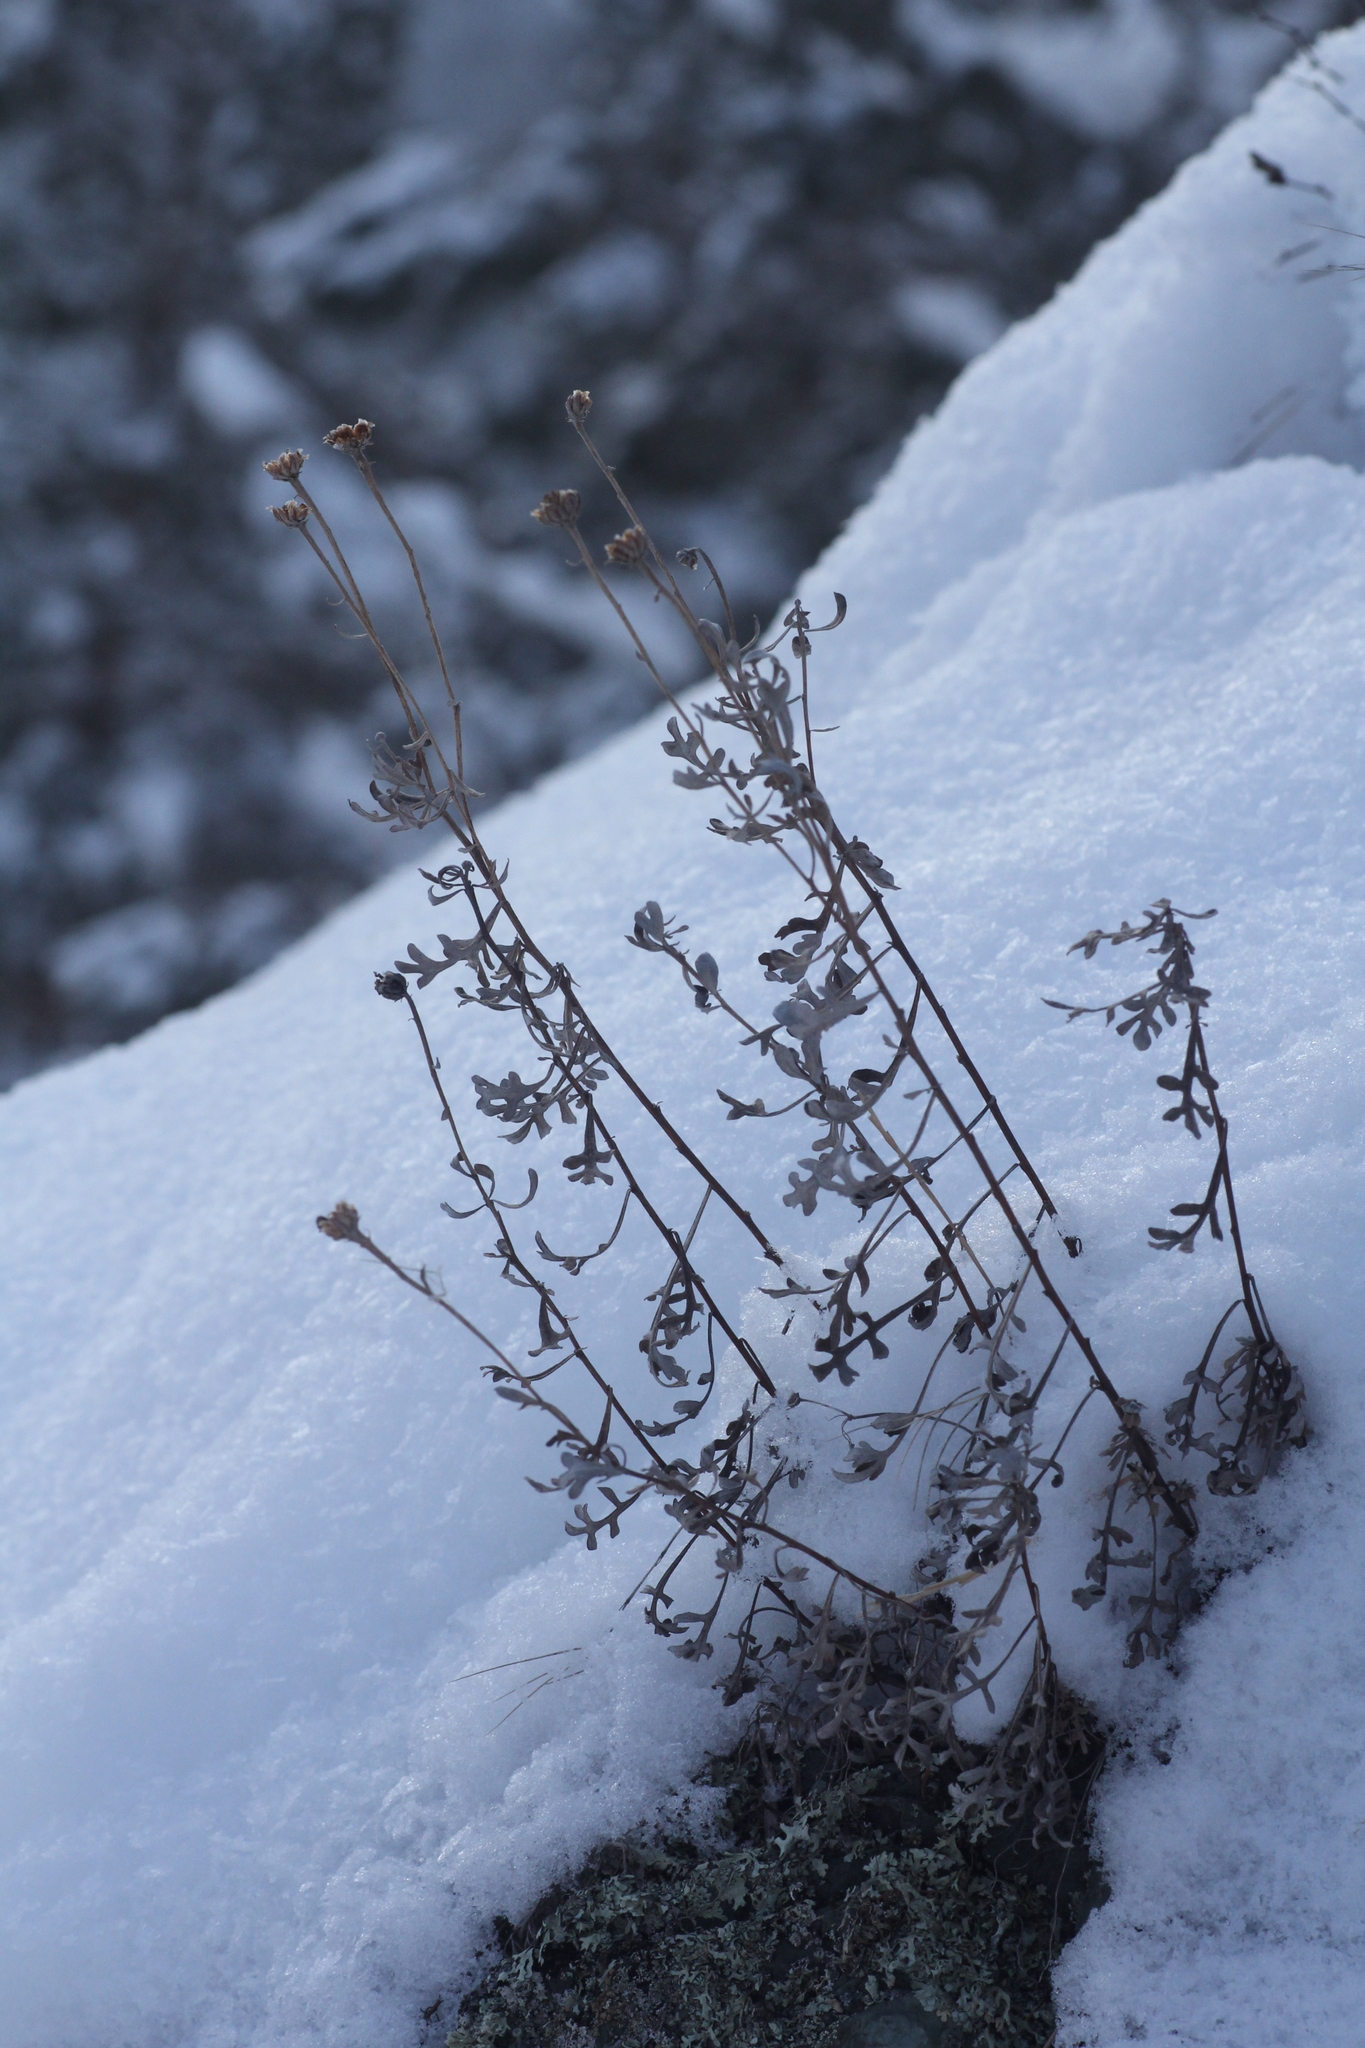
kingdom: Plantae
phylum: Tracheophyta
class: Magnoliopsida
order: Asterales
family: Asteraceae
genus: Chrysanthemum
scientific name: Chrysanthemum sinuatum
